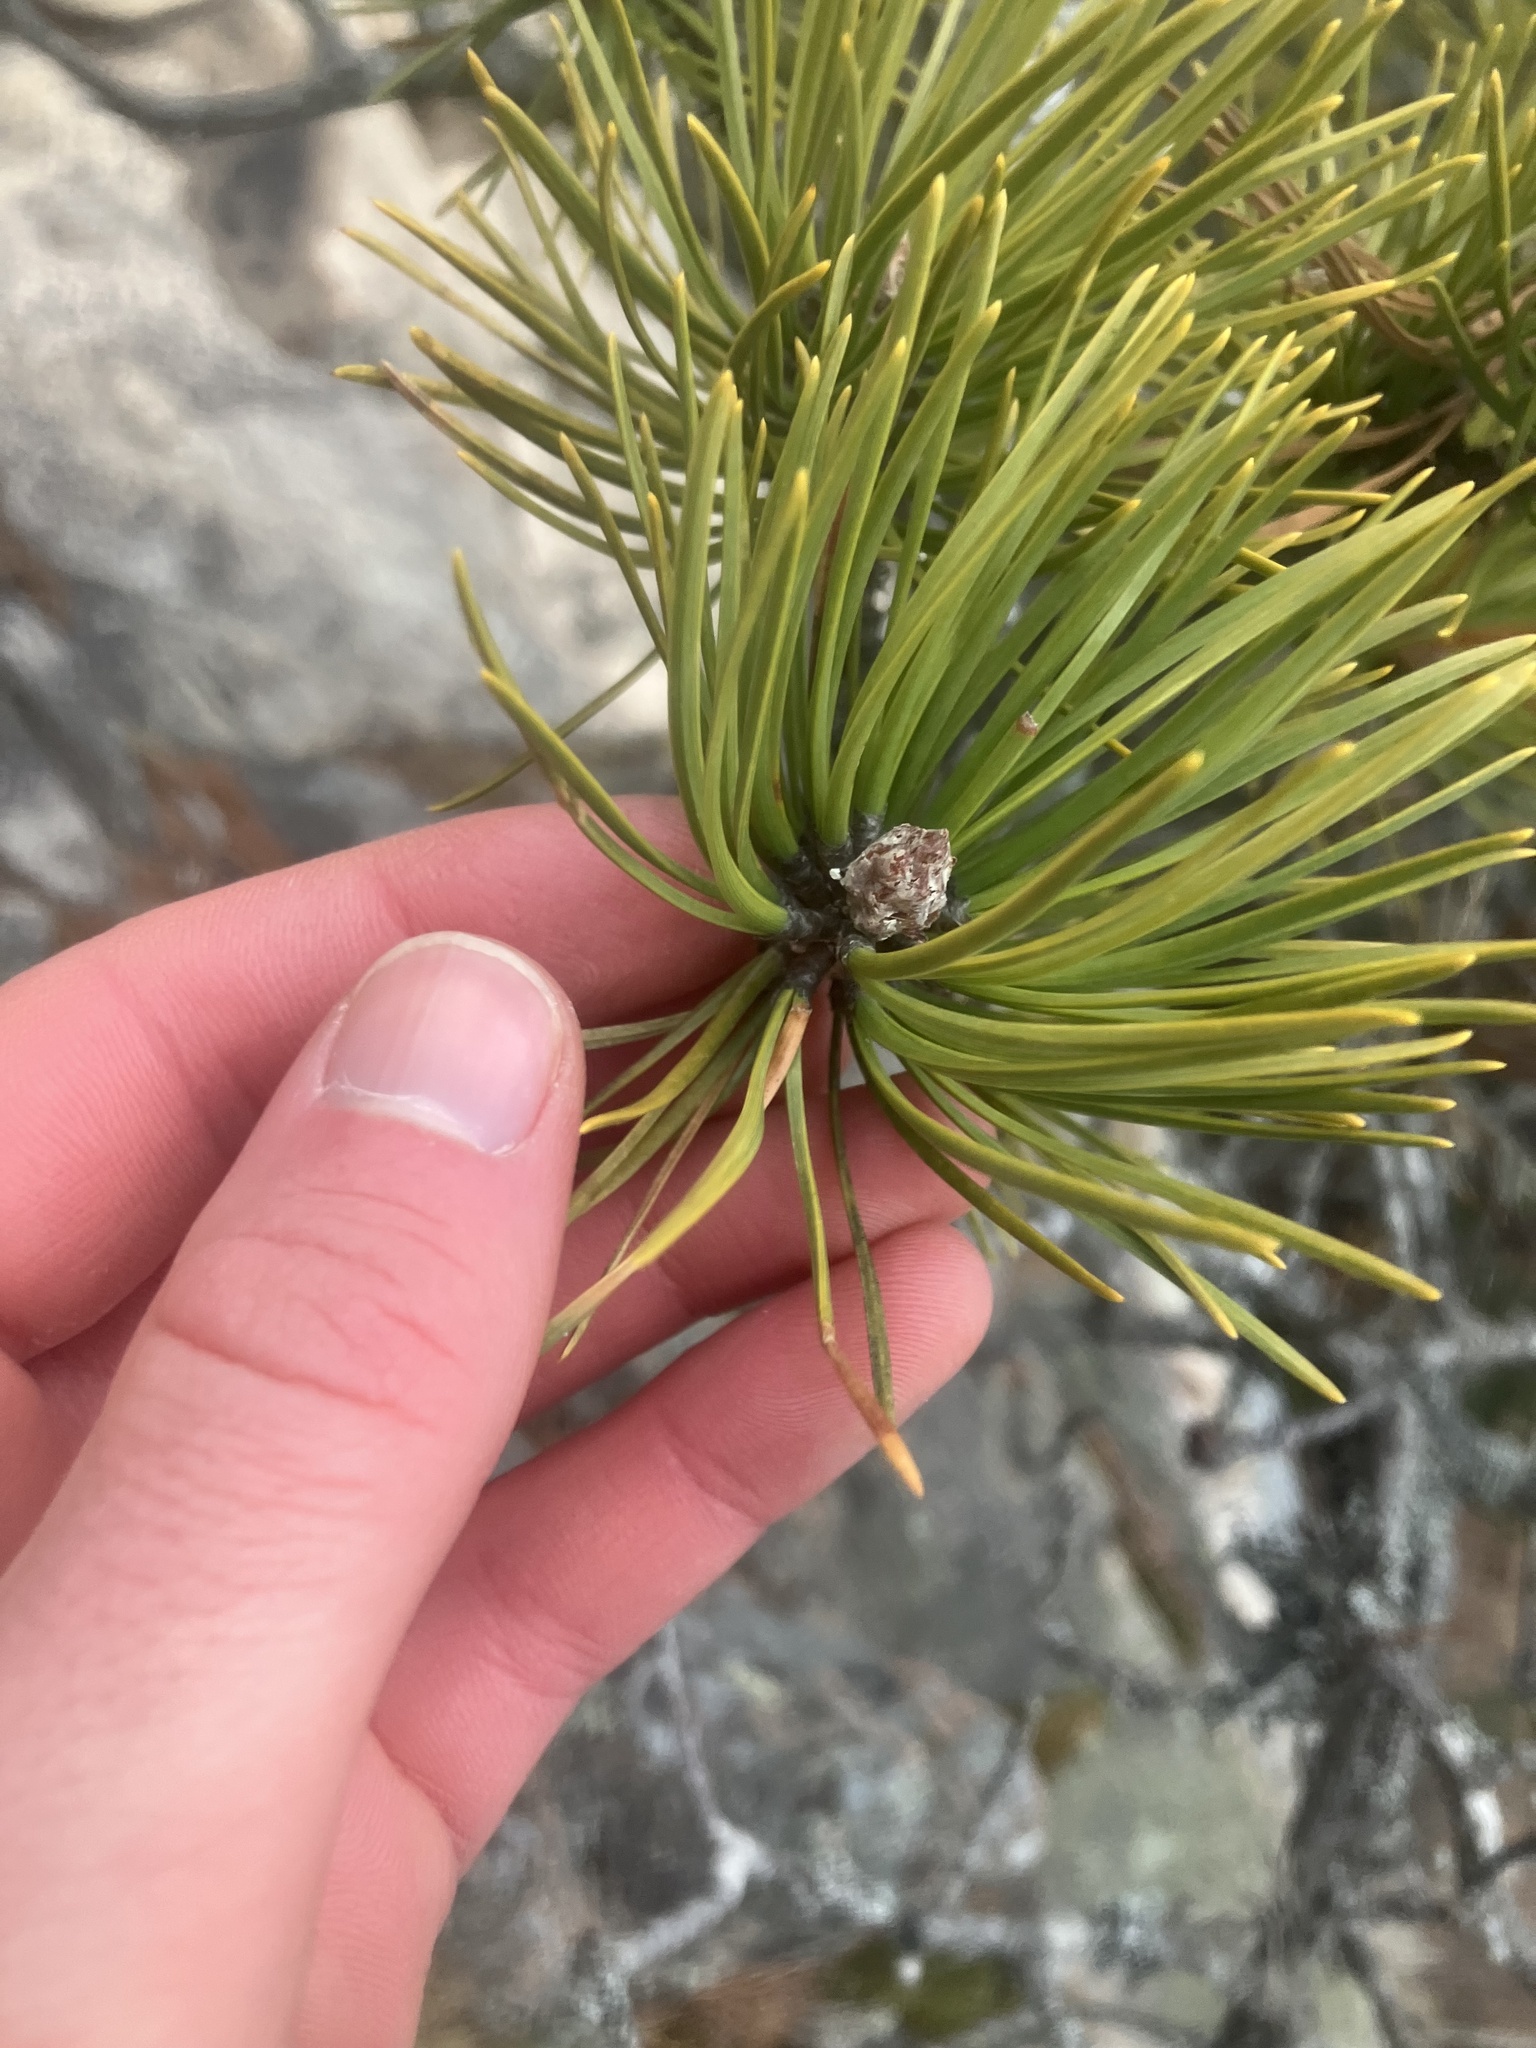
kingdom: Plantae
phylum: Tracheophyta
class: Pinopsida
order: Pinales
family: Pinaceae
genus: Pinus
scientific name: Pinus rigida
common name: Pitch pine
